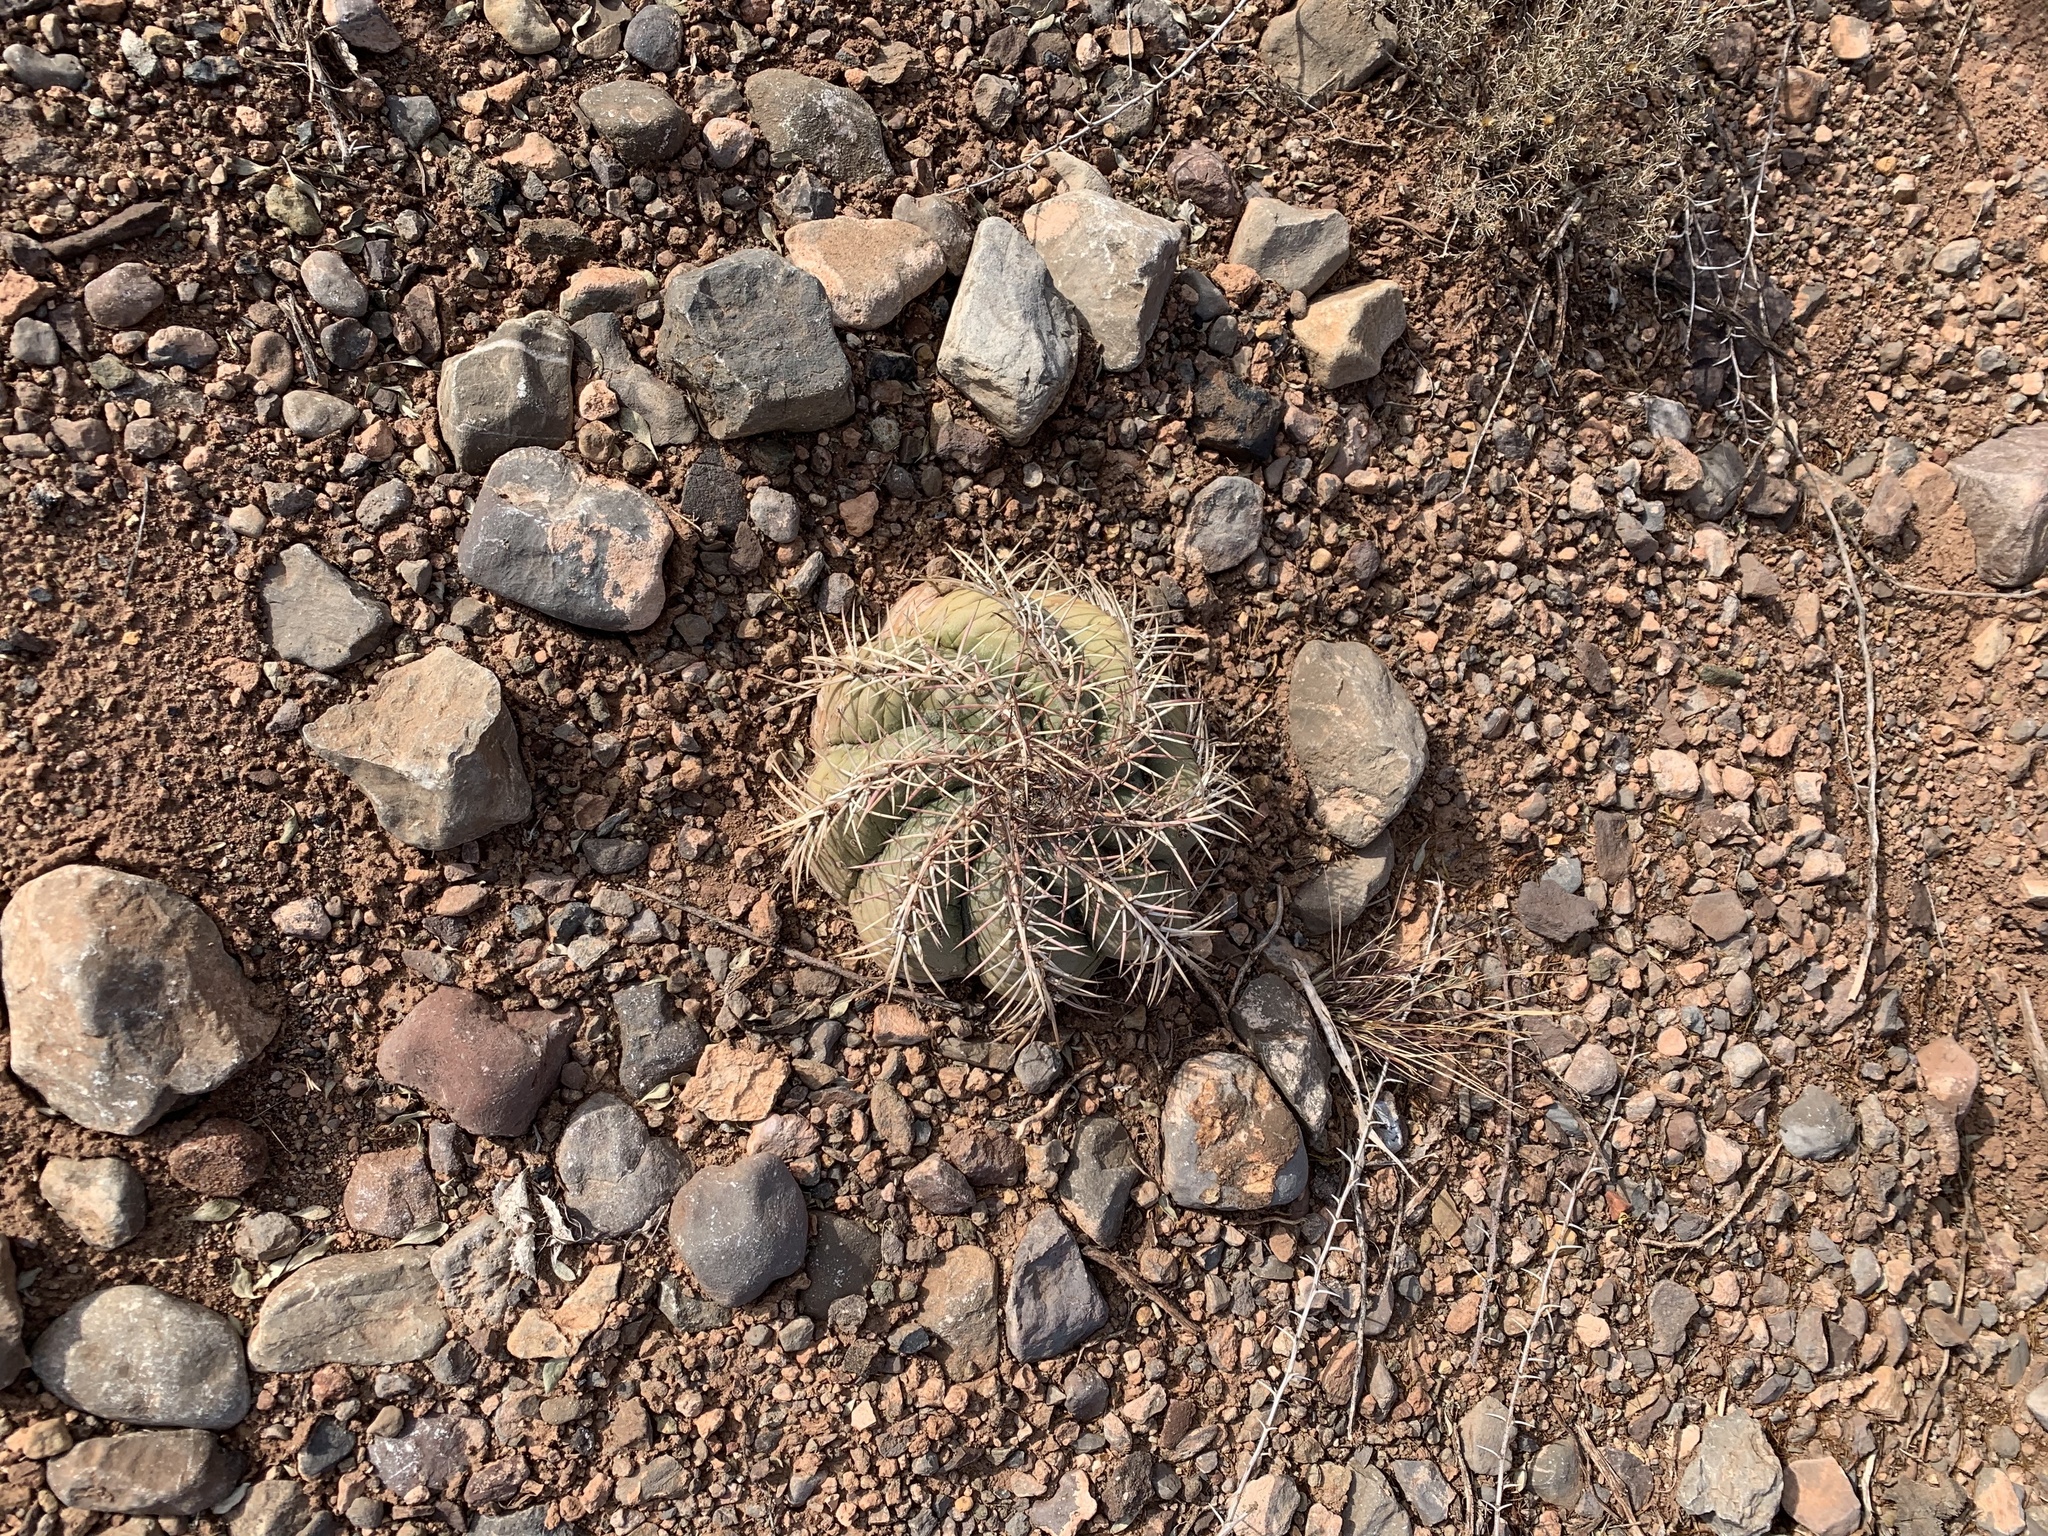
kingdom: Plantae
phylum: Tracheophyta
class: Magnoliopsida
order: Caryophyllales
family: Cactaceae
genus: Echinocactus
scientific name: Echinocactus horizonthalonius
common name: Devilshead
